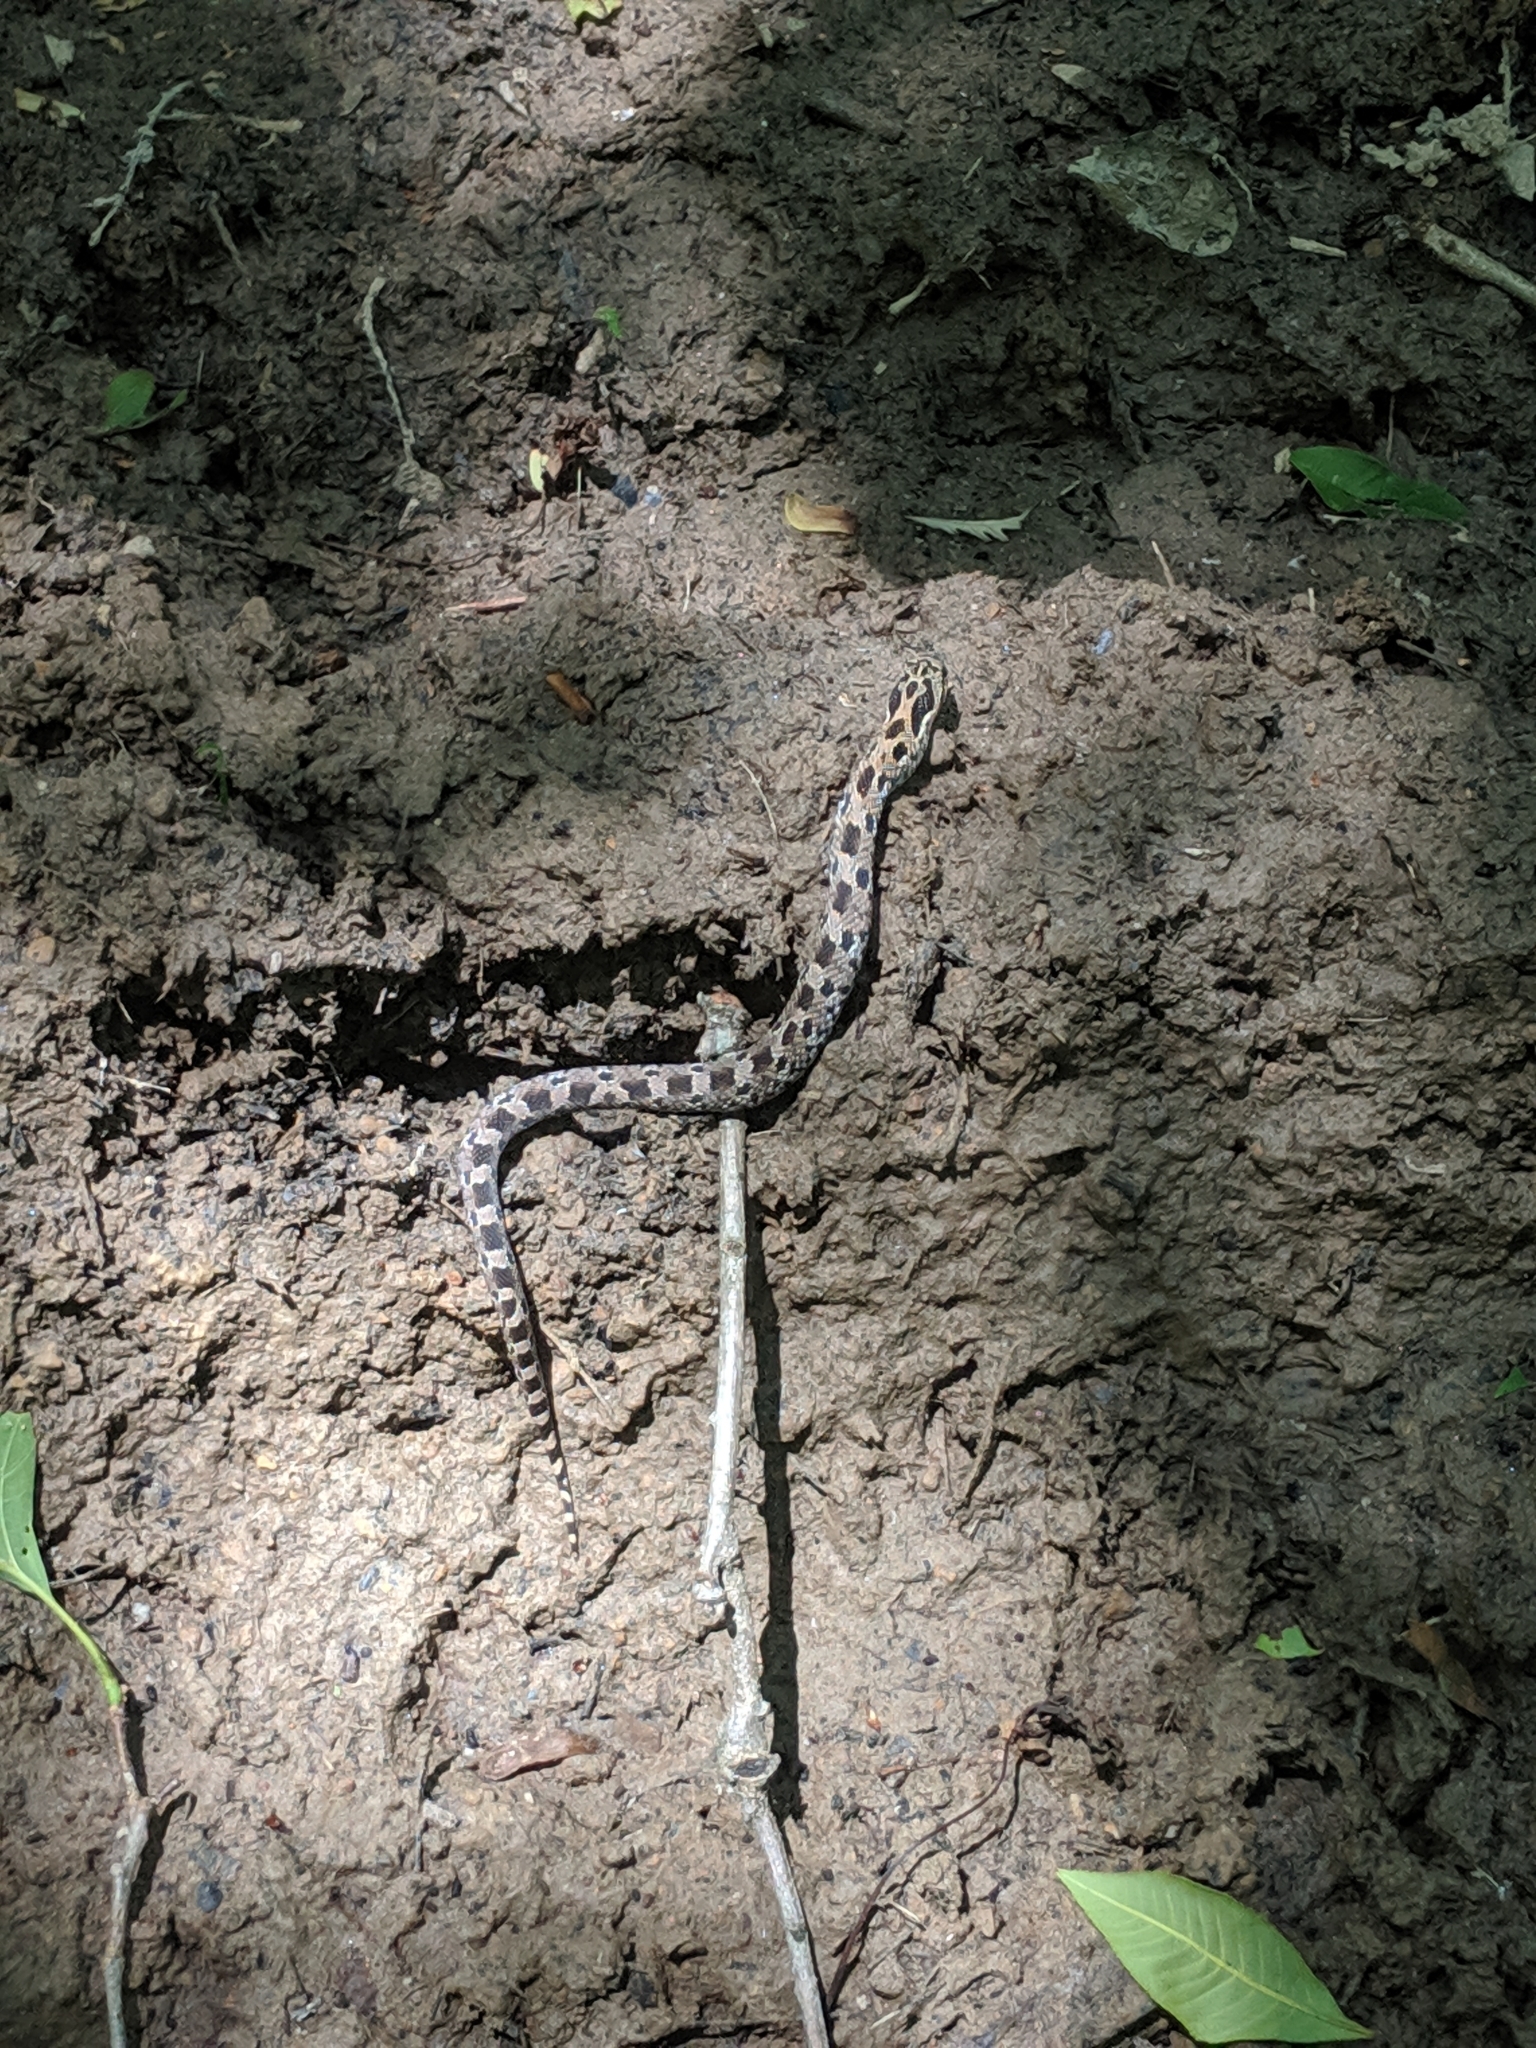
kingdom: Animalia
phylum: Chordata
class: Squamata
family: Colubridae
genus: Heterodon
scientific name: Heterodon platirhinos
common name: Eastern hognose snake
